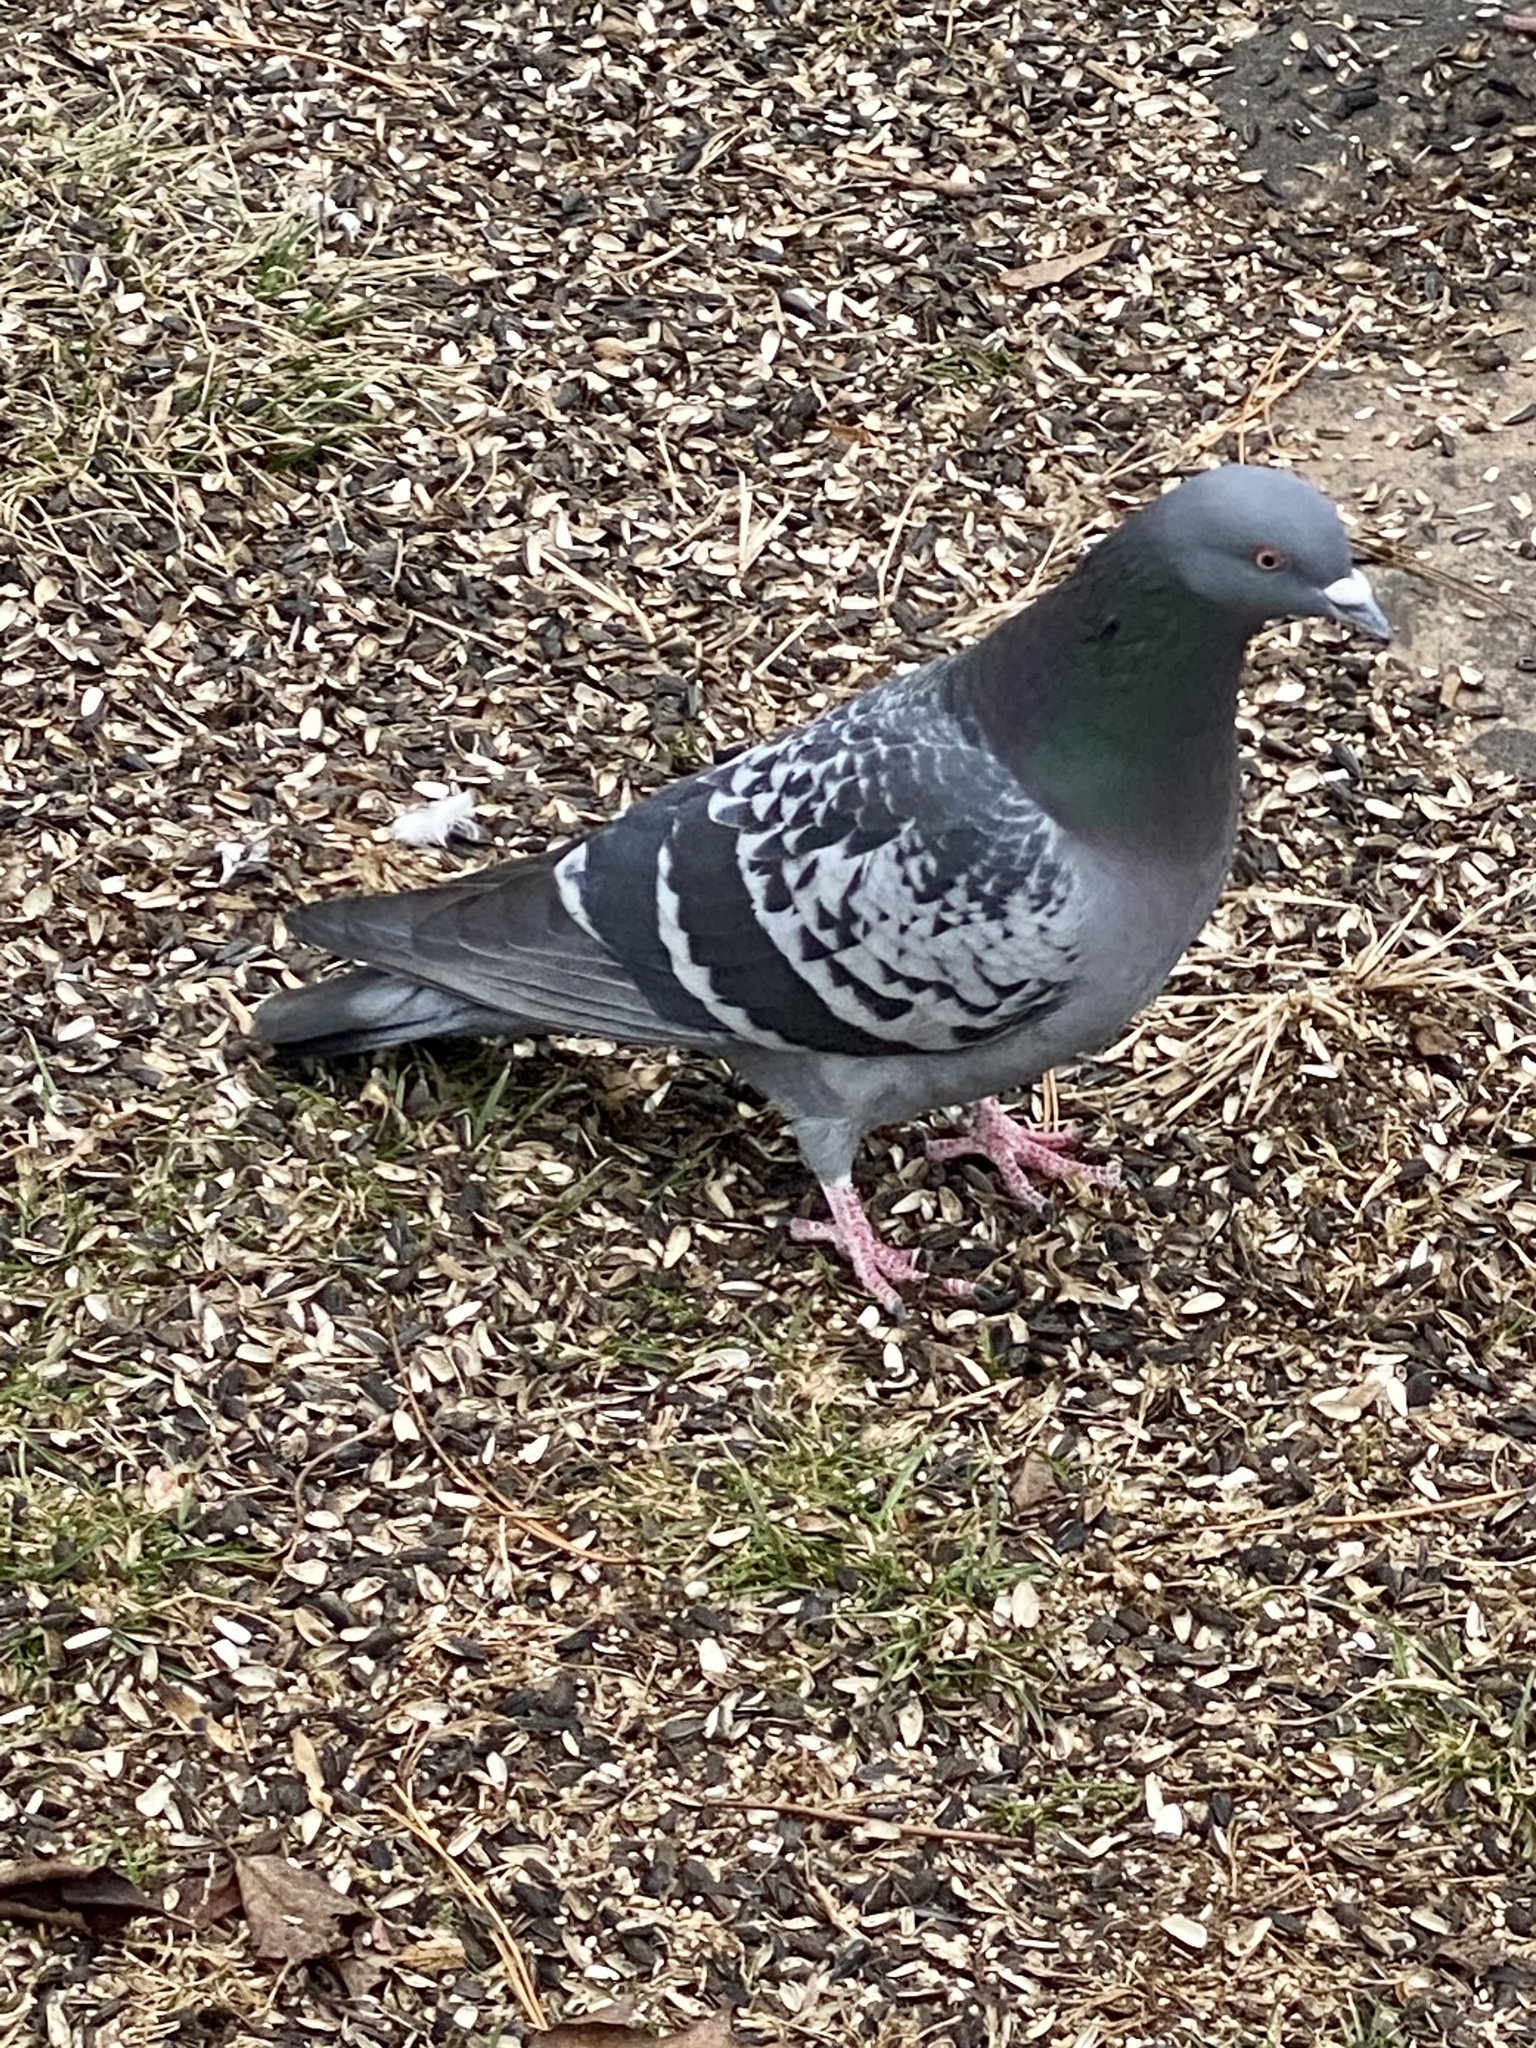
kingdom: Animalia
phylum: Chordata
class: Aves
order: Columbiformes
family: Columbidae
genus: Columba
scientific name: Columba livia
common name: Rock pigeon
